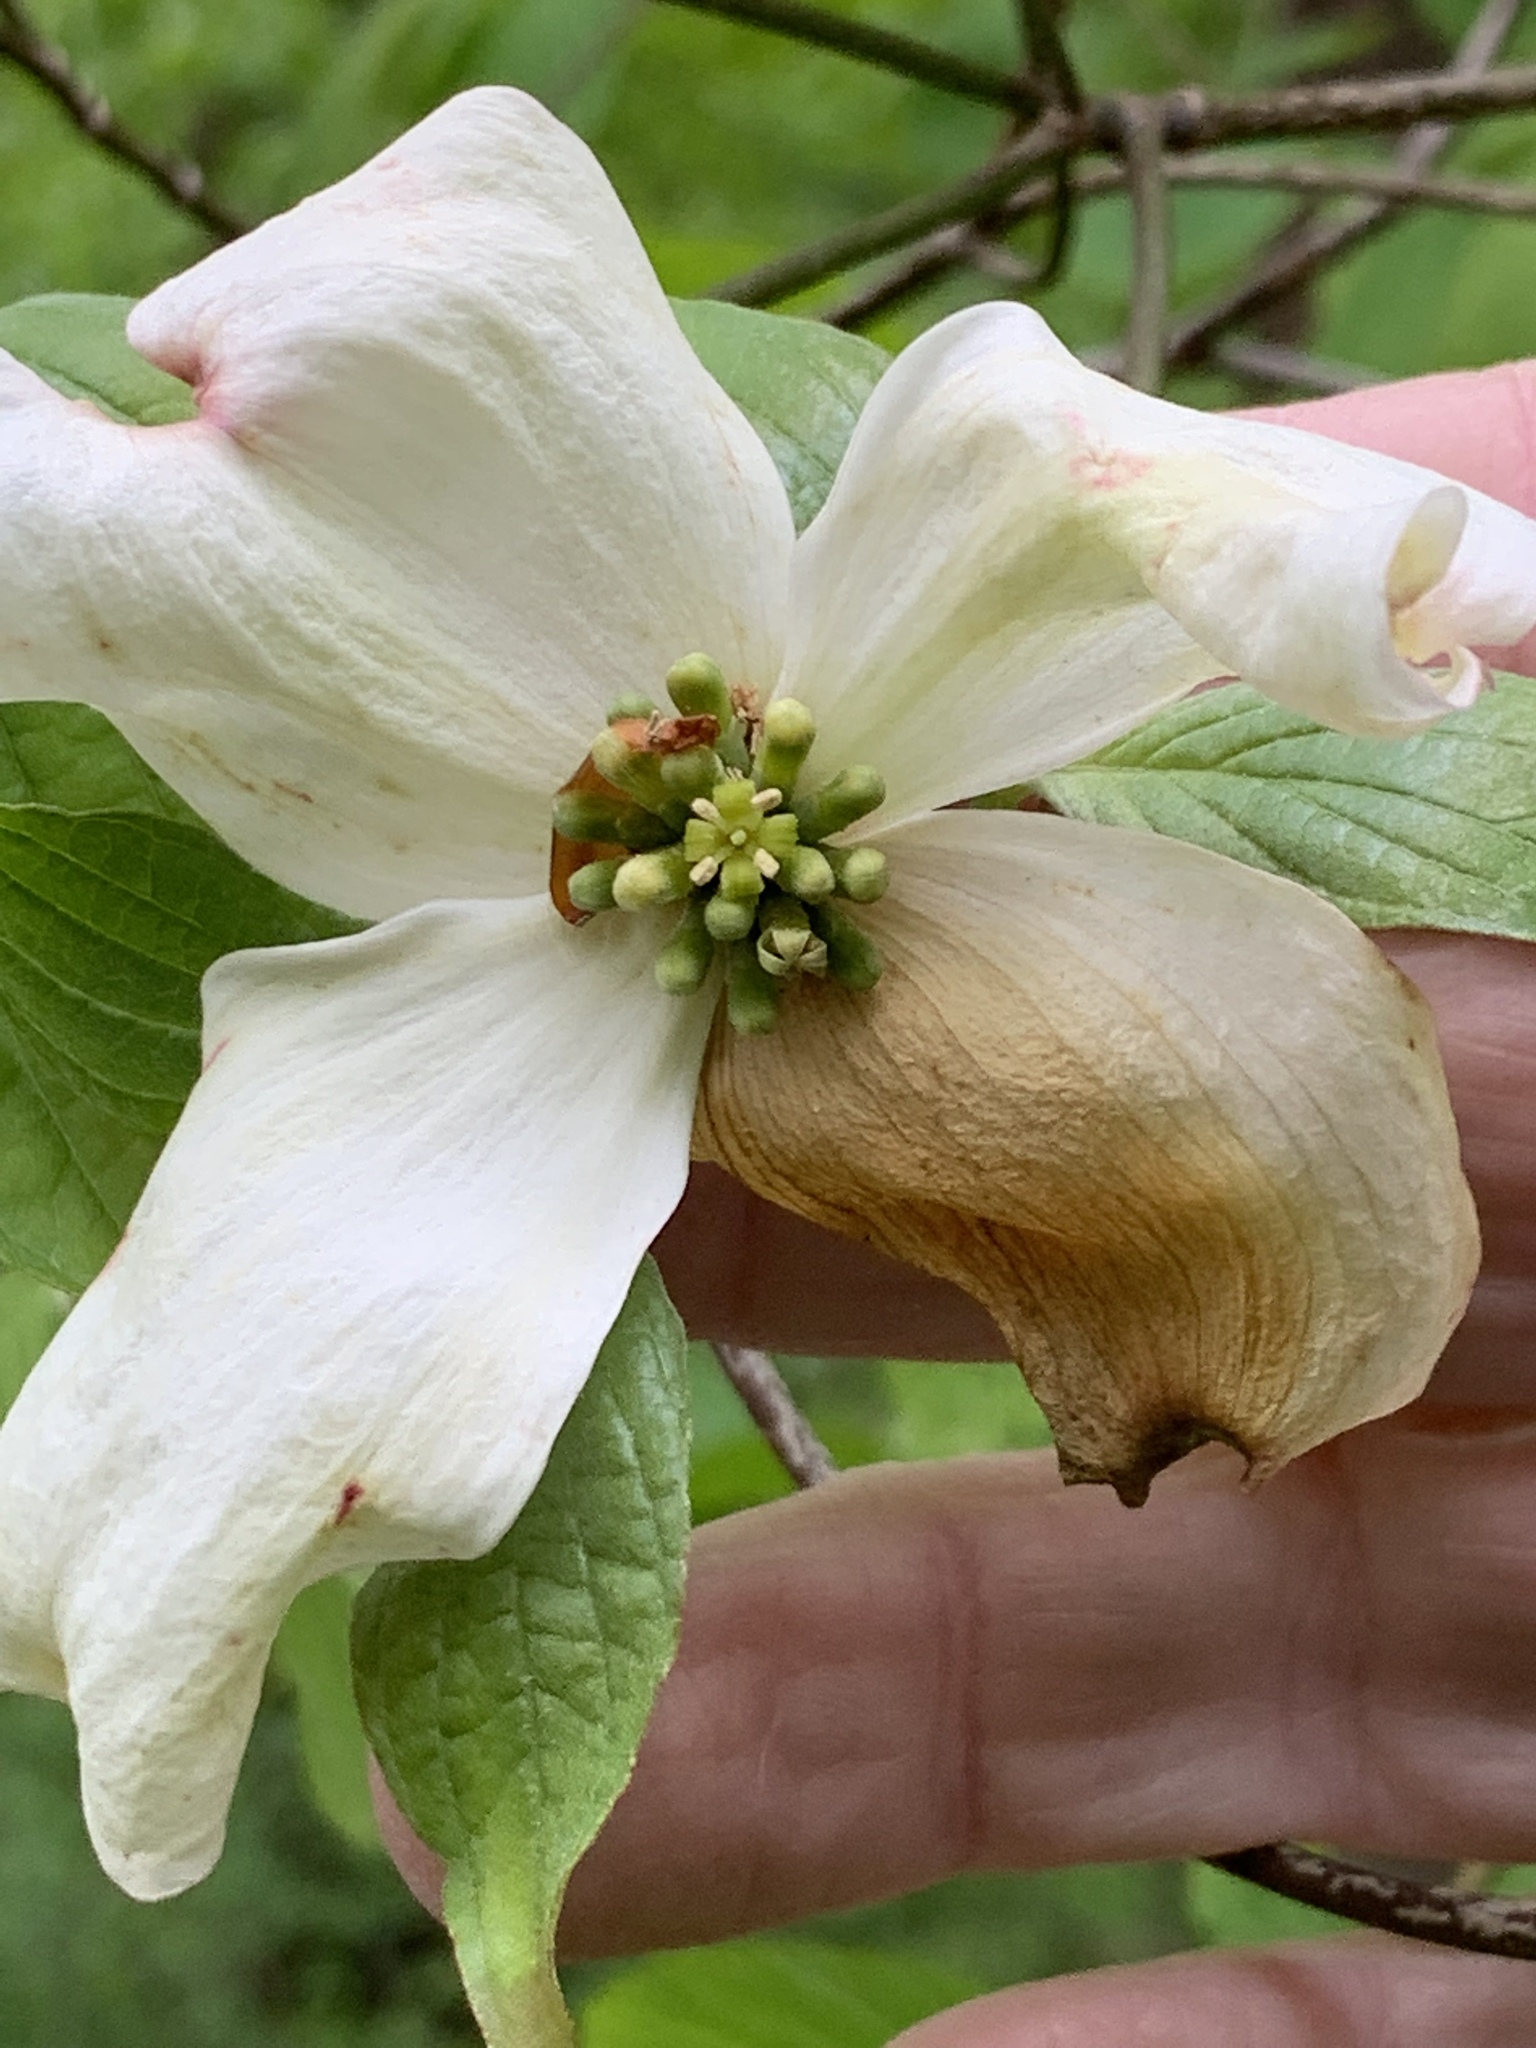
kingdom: Plantae
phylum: Tracheophyta
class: Magnoliopsida
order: Cornales
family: Cornaceae
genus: Cornus
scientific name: Cornus florida
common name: Flowering dogwood
